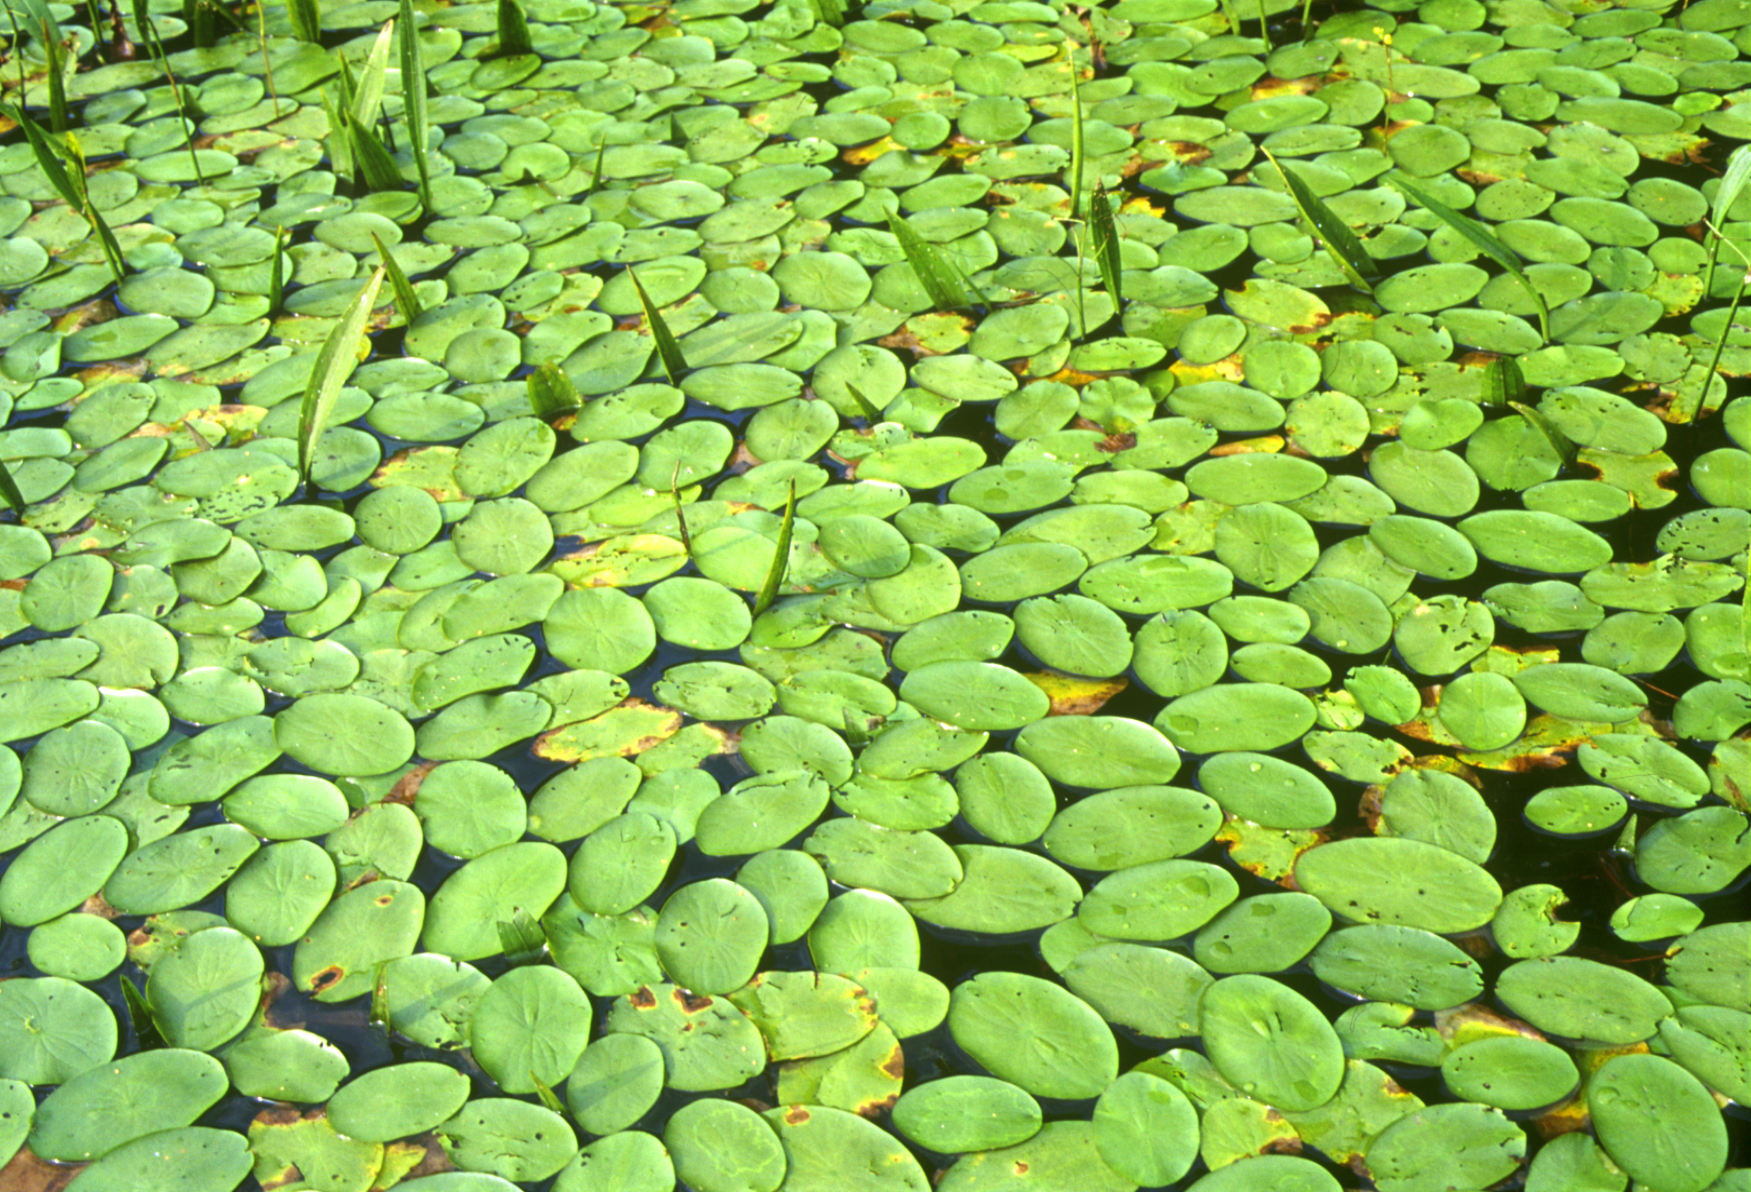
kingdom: Plantae
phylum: Tracheophyta
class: Magnoliopsida
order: Nymphaeales
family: Cabombaceae
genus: Brasenia
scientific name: Brasenia schreberi
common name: Water-shield
